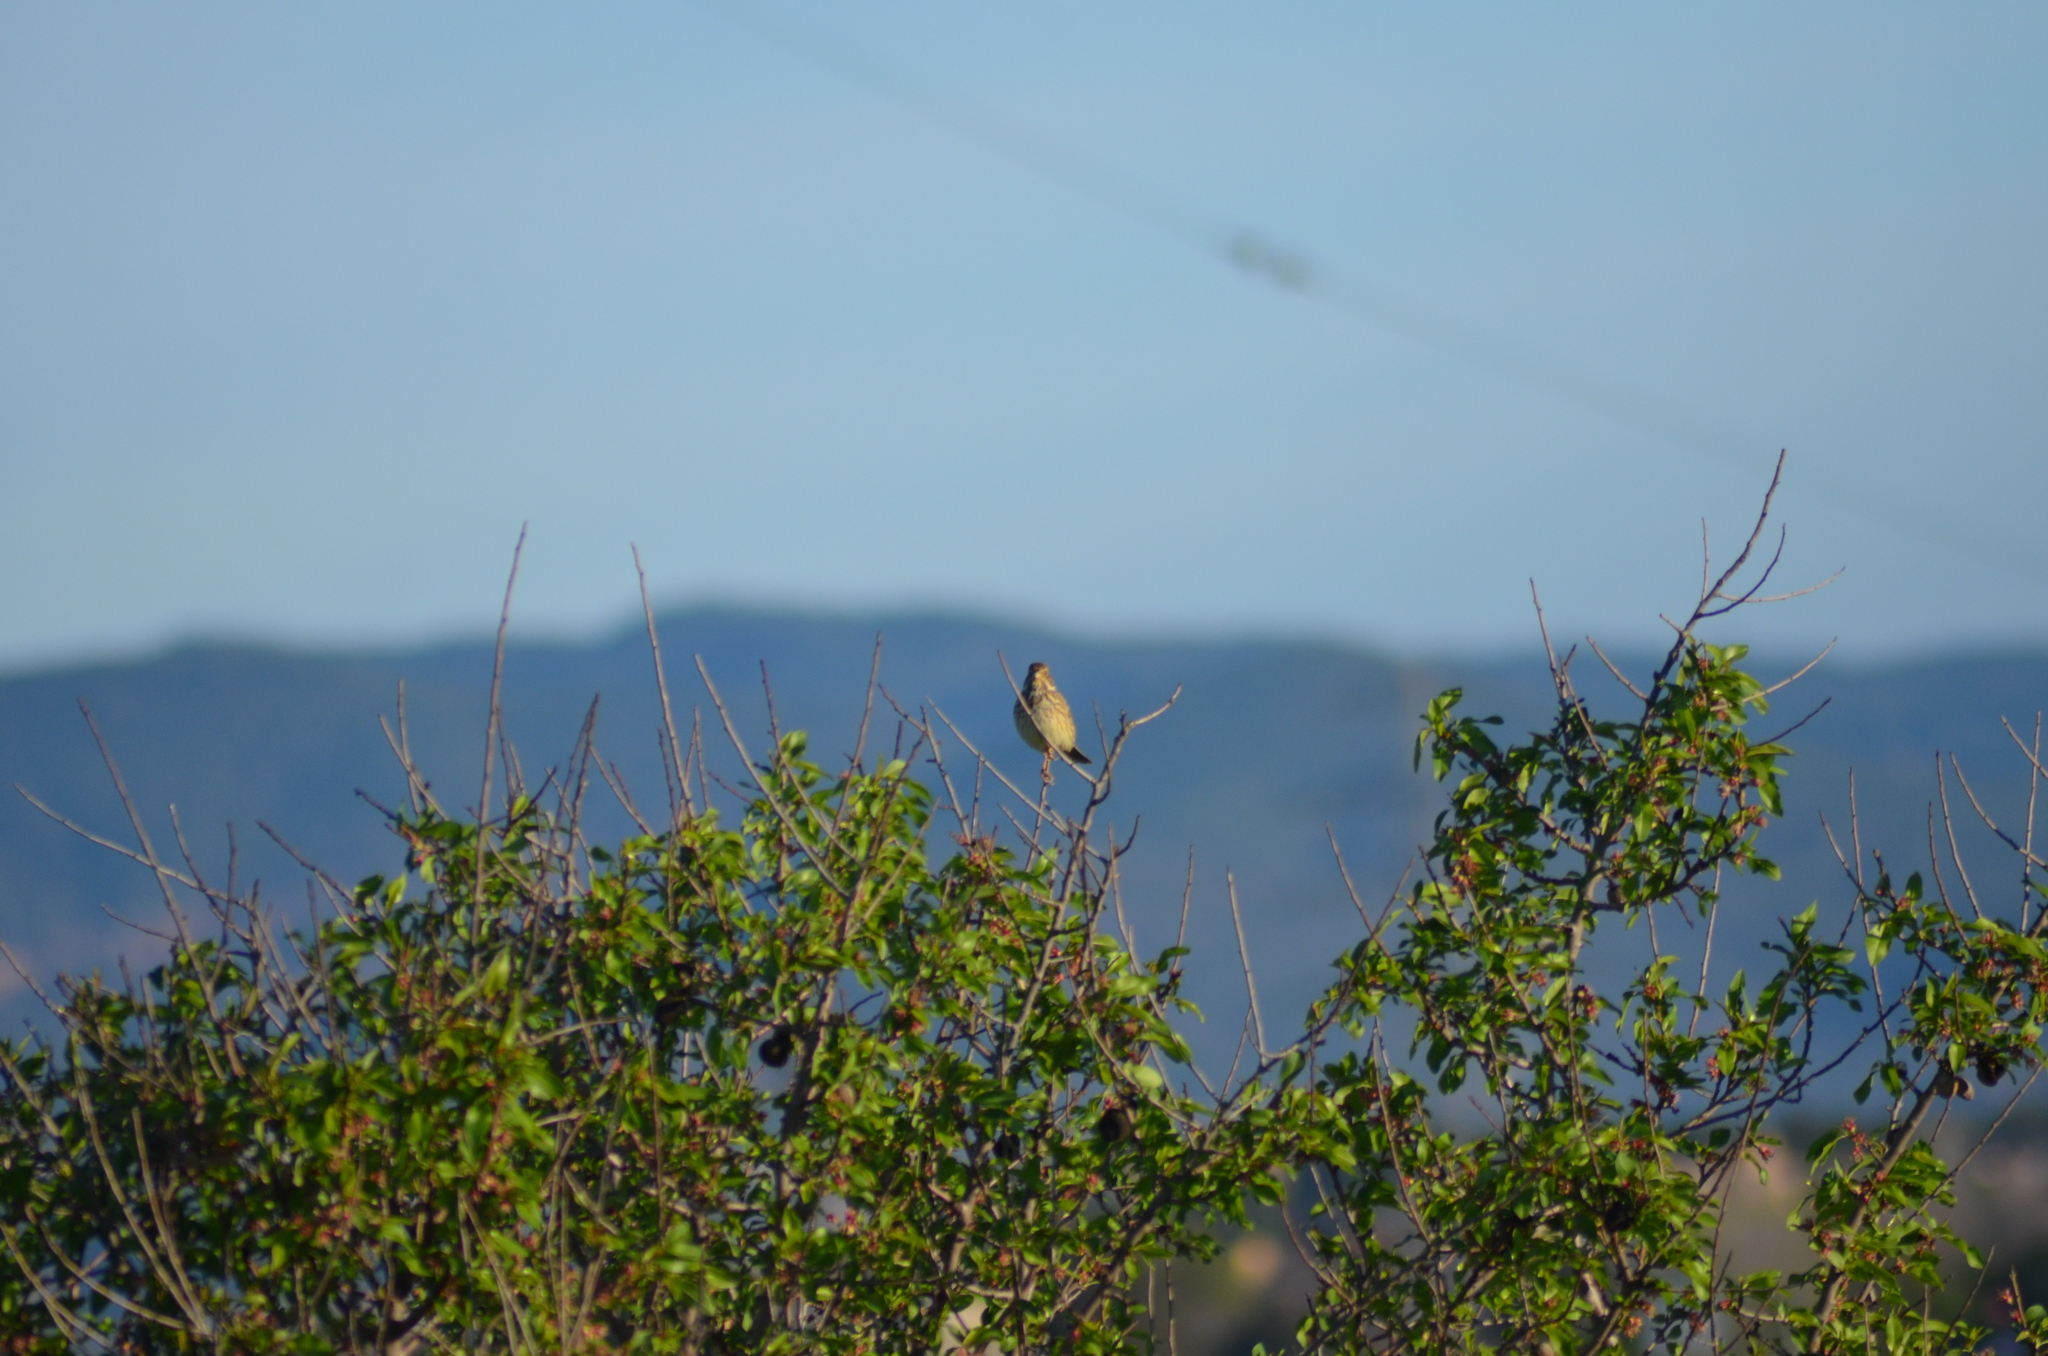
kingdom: Animalia
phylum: Chordata
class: Aves
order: Passeriformes
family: Emberizidae
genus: Emberiza
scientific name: Emberiza calandra
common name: Corn bunting
